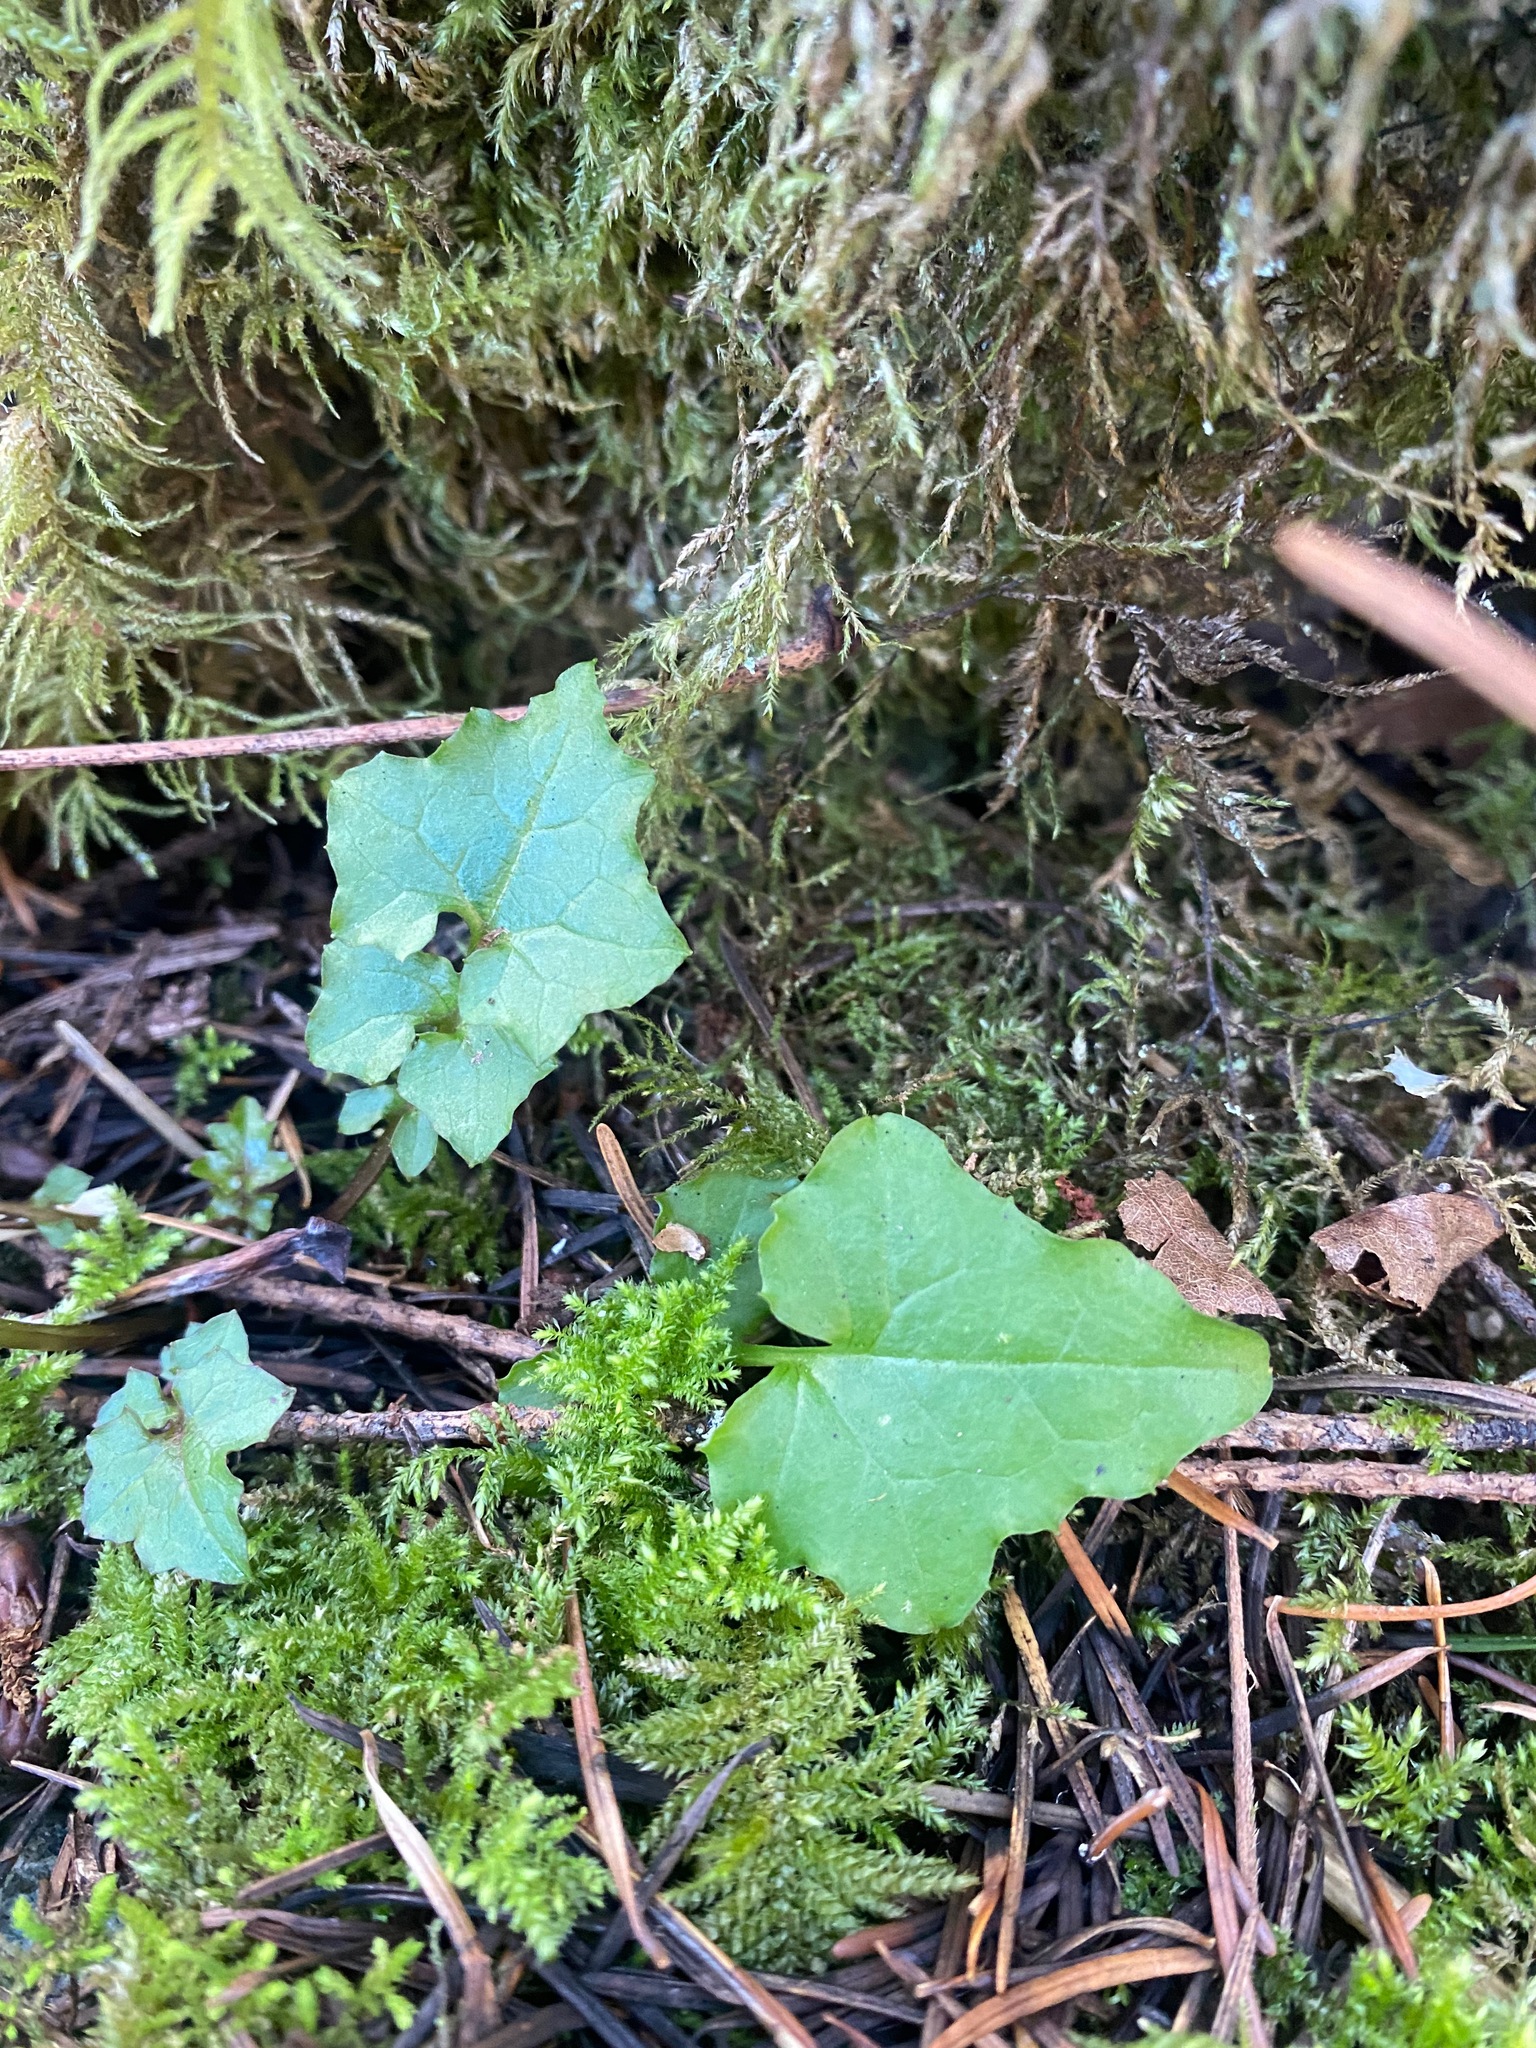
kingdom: Plantae
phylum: Tracheophyta
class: Magnoliopsida
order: Asterales
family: Asteraceae
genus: Mycelis
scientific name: Mycelis muralis
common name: Wall lettuce
